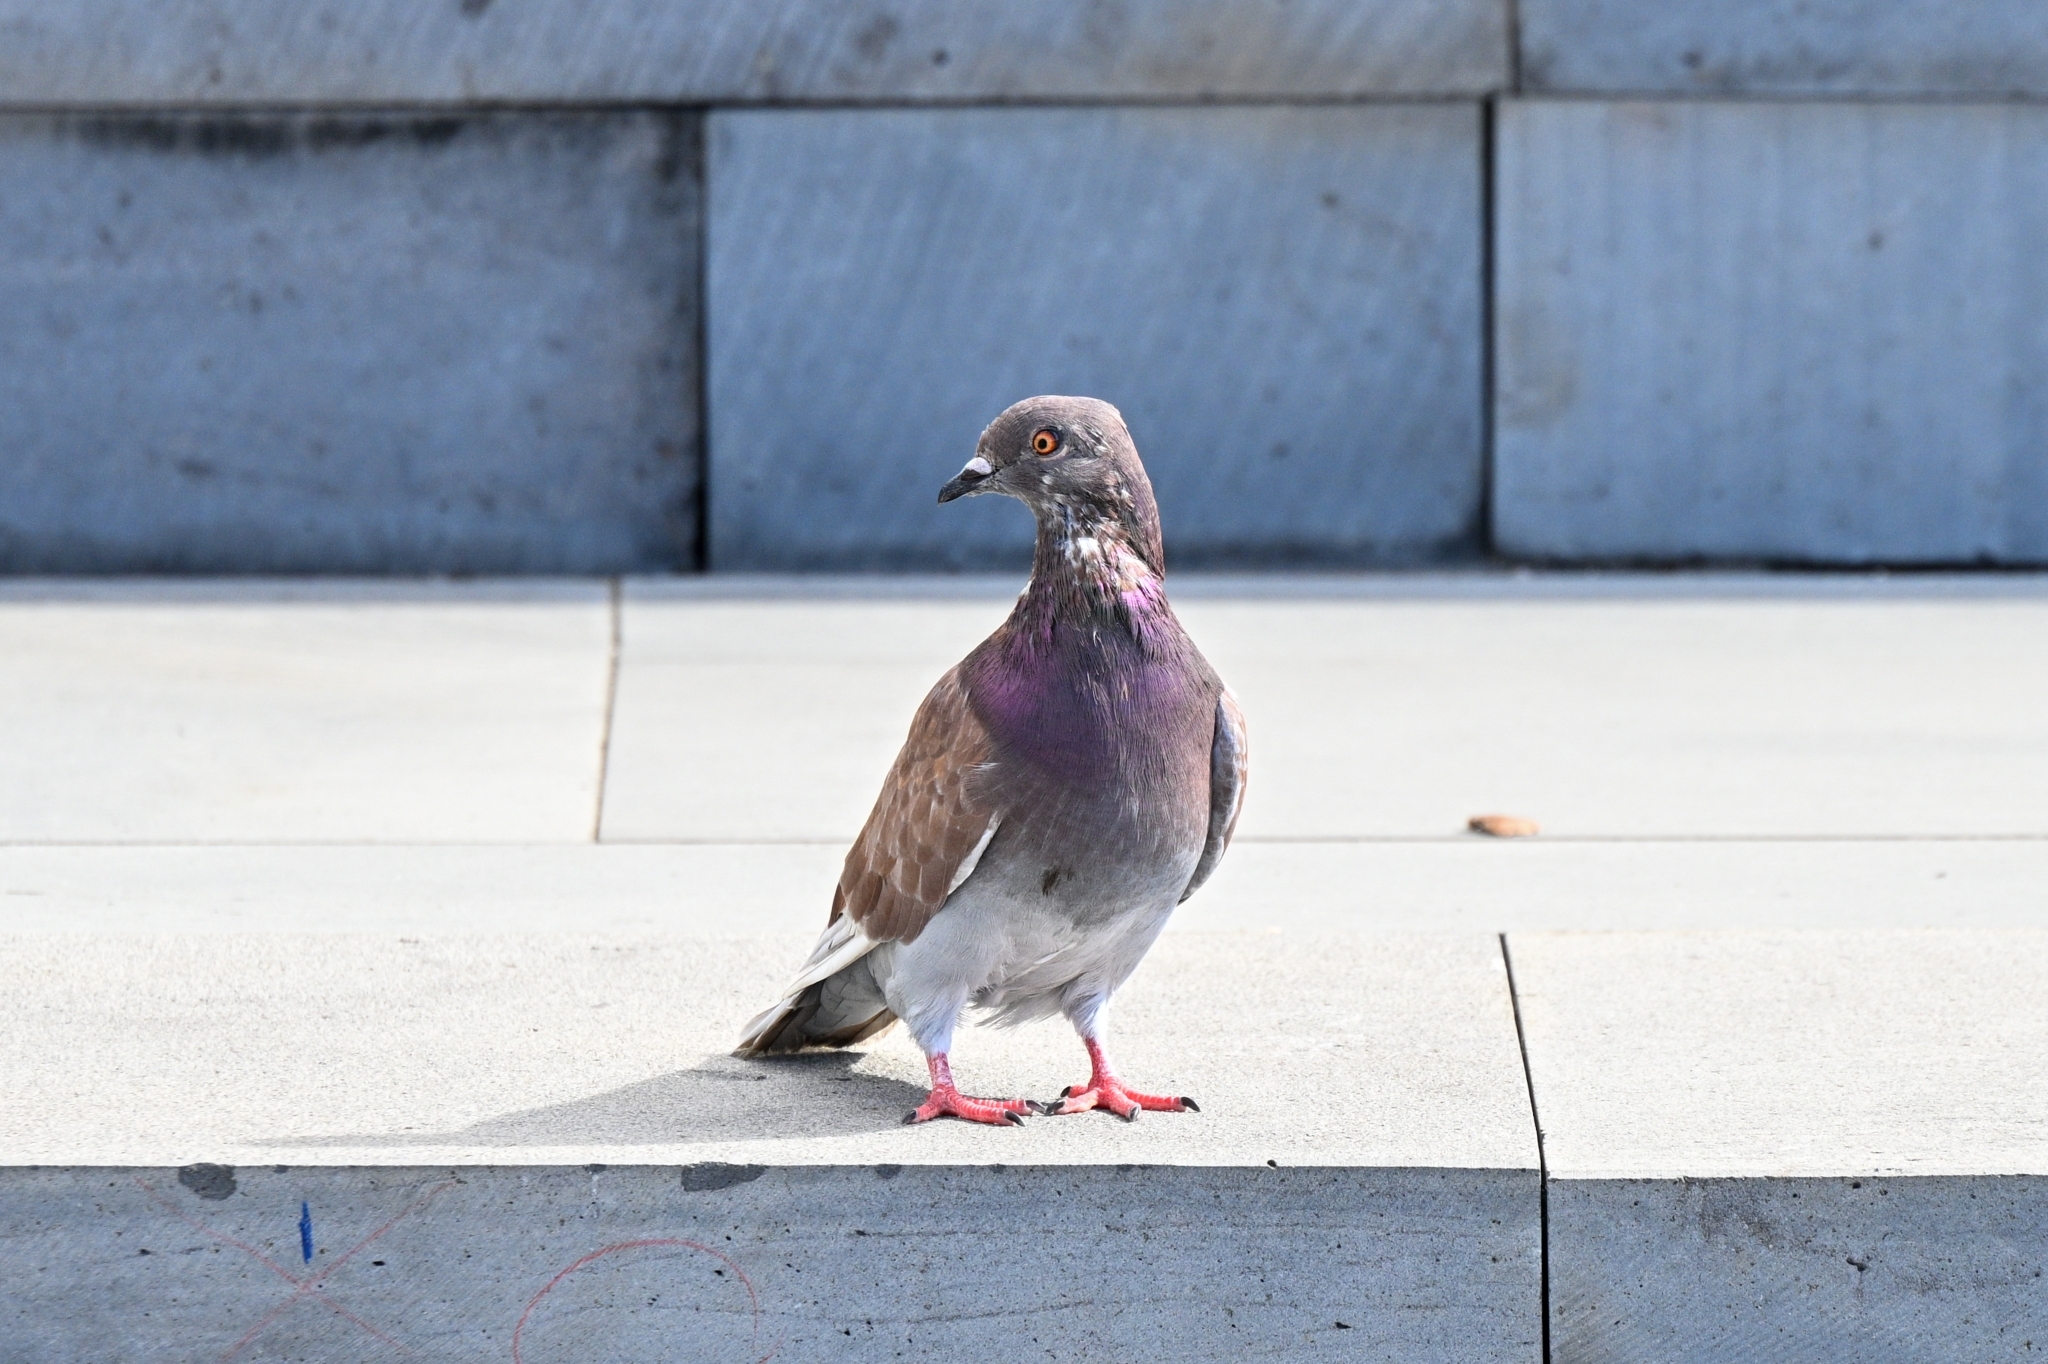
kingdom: Animalia
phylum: Chordata
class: Aves
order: Columbiformes
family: Columbidae
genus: Columba
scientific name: Columba livia
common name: Rock pigeon
